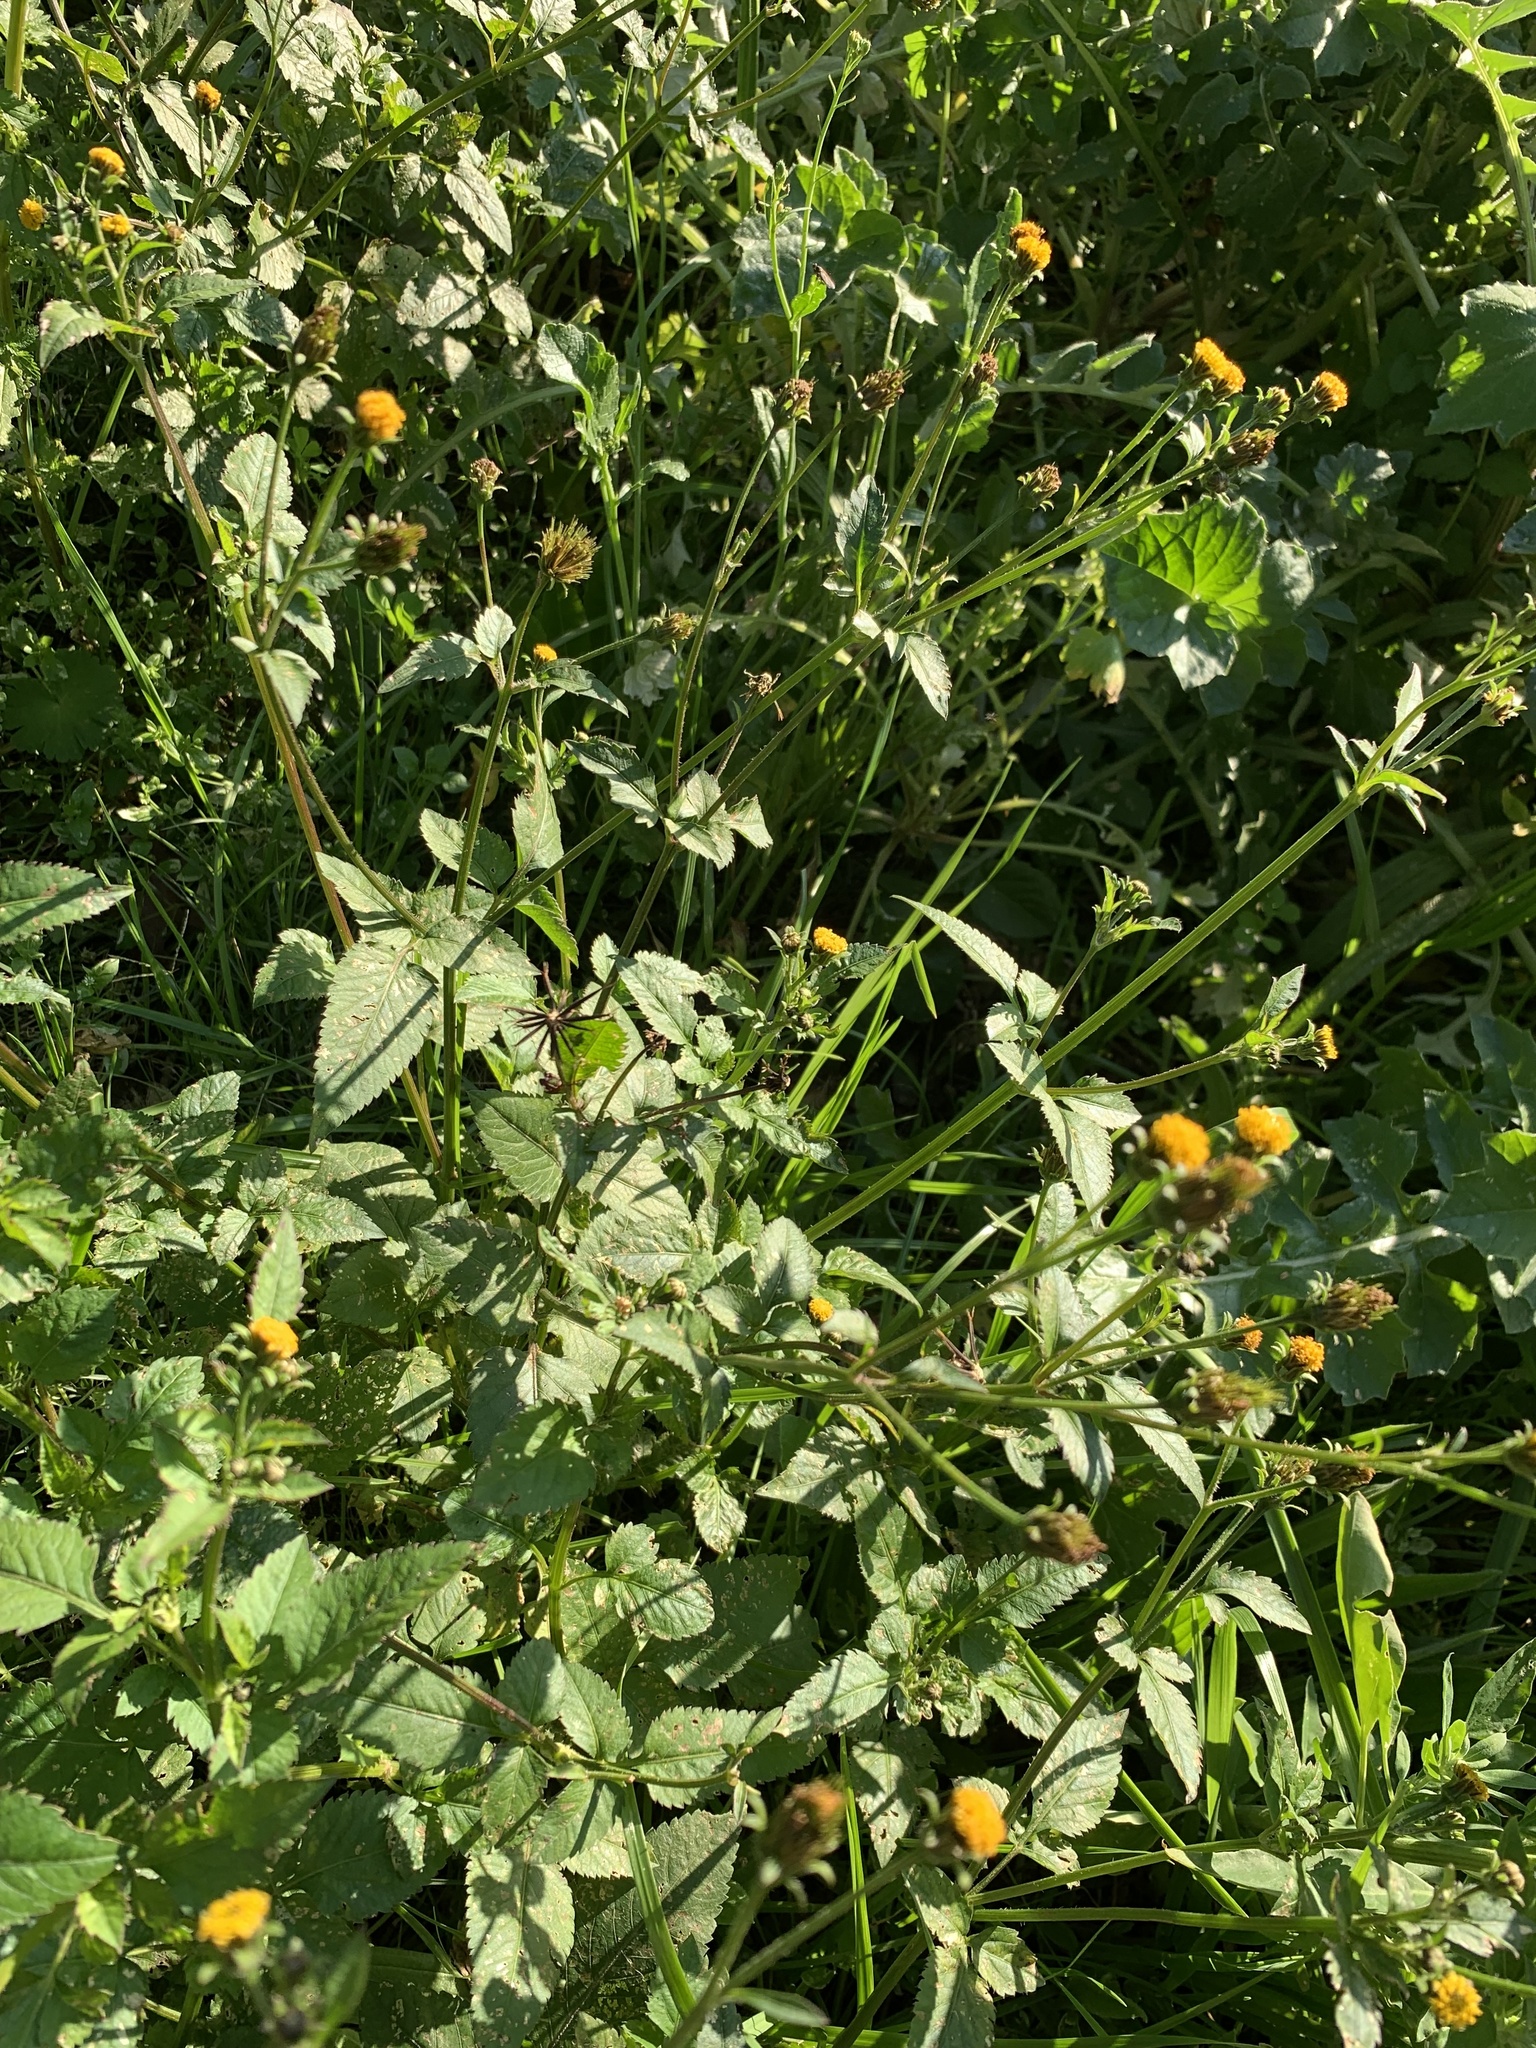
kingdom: Plantae
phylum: Tracheophyta
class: Magnoliopsida
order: Asterales
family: Asteraceae
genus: Bidens
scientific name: Bidens pilosa
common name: Black-jack
